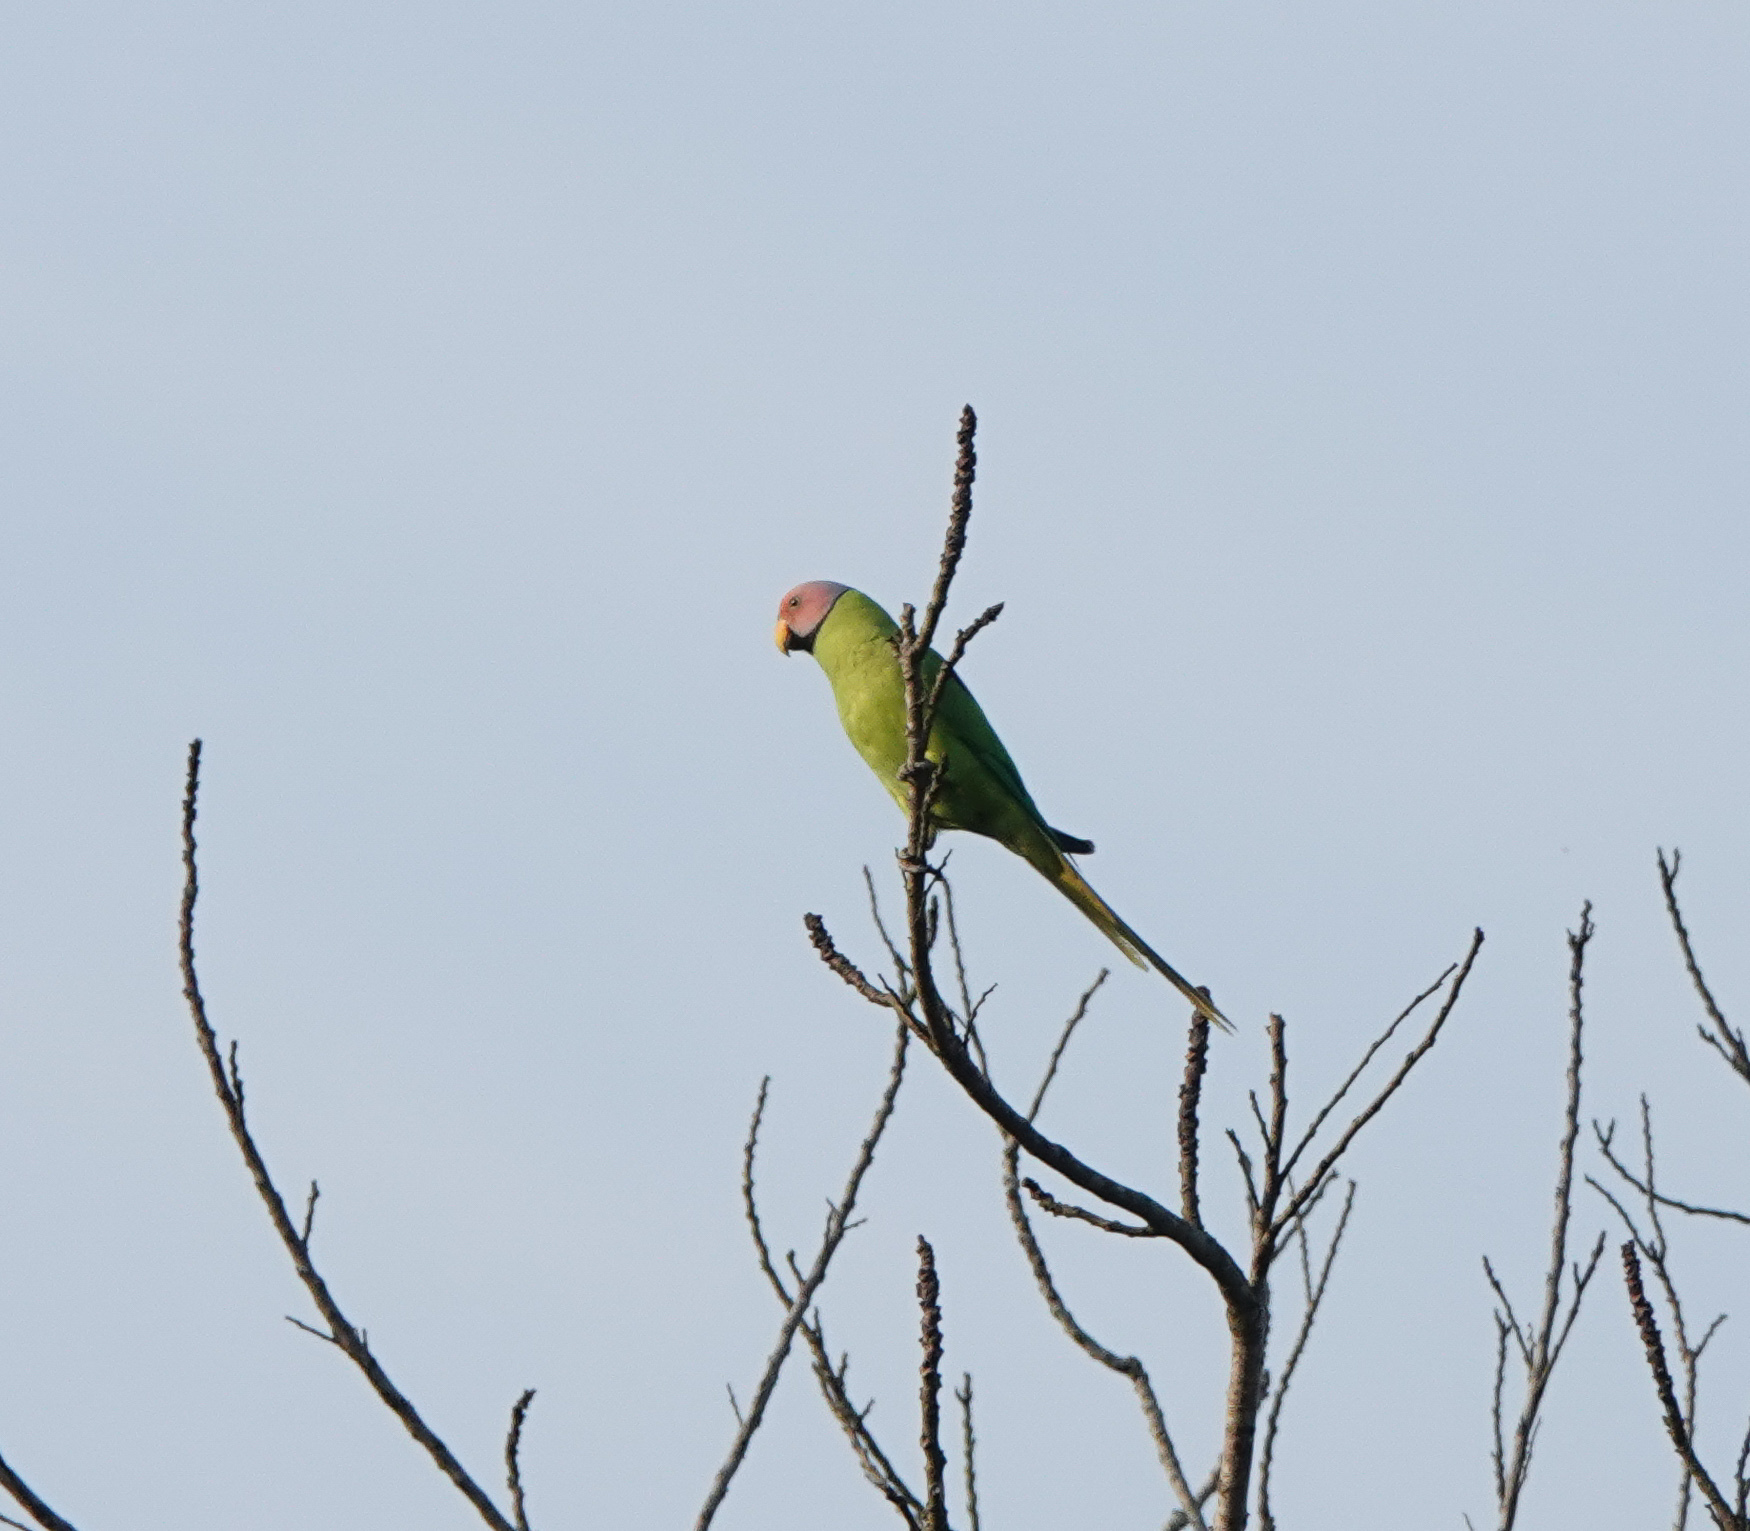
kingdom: Animalia
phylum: Chordata
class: Aves
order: Psittaciformes
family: Psittacidae
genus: Psittacula
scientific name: Psittacula roseata
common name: Blossom-headed parakeet
